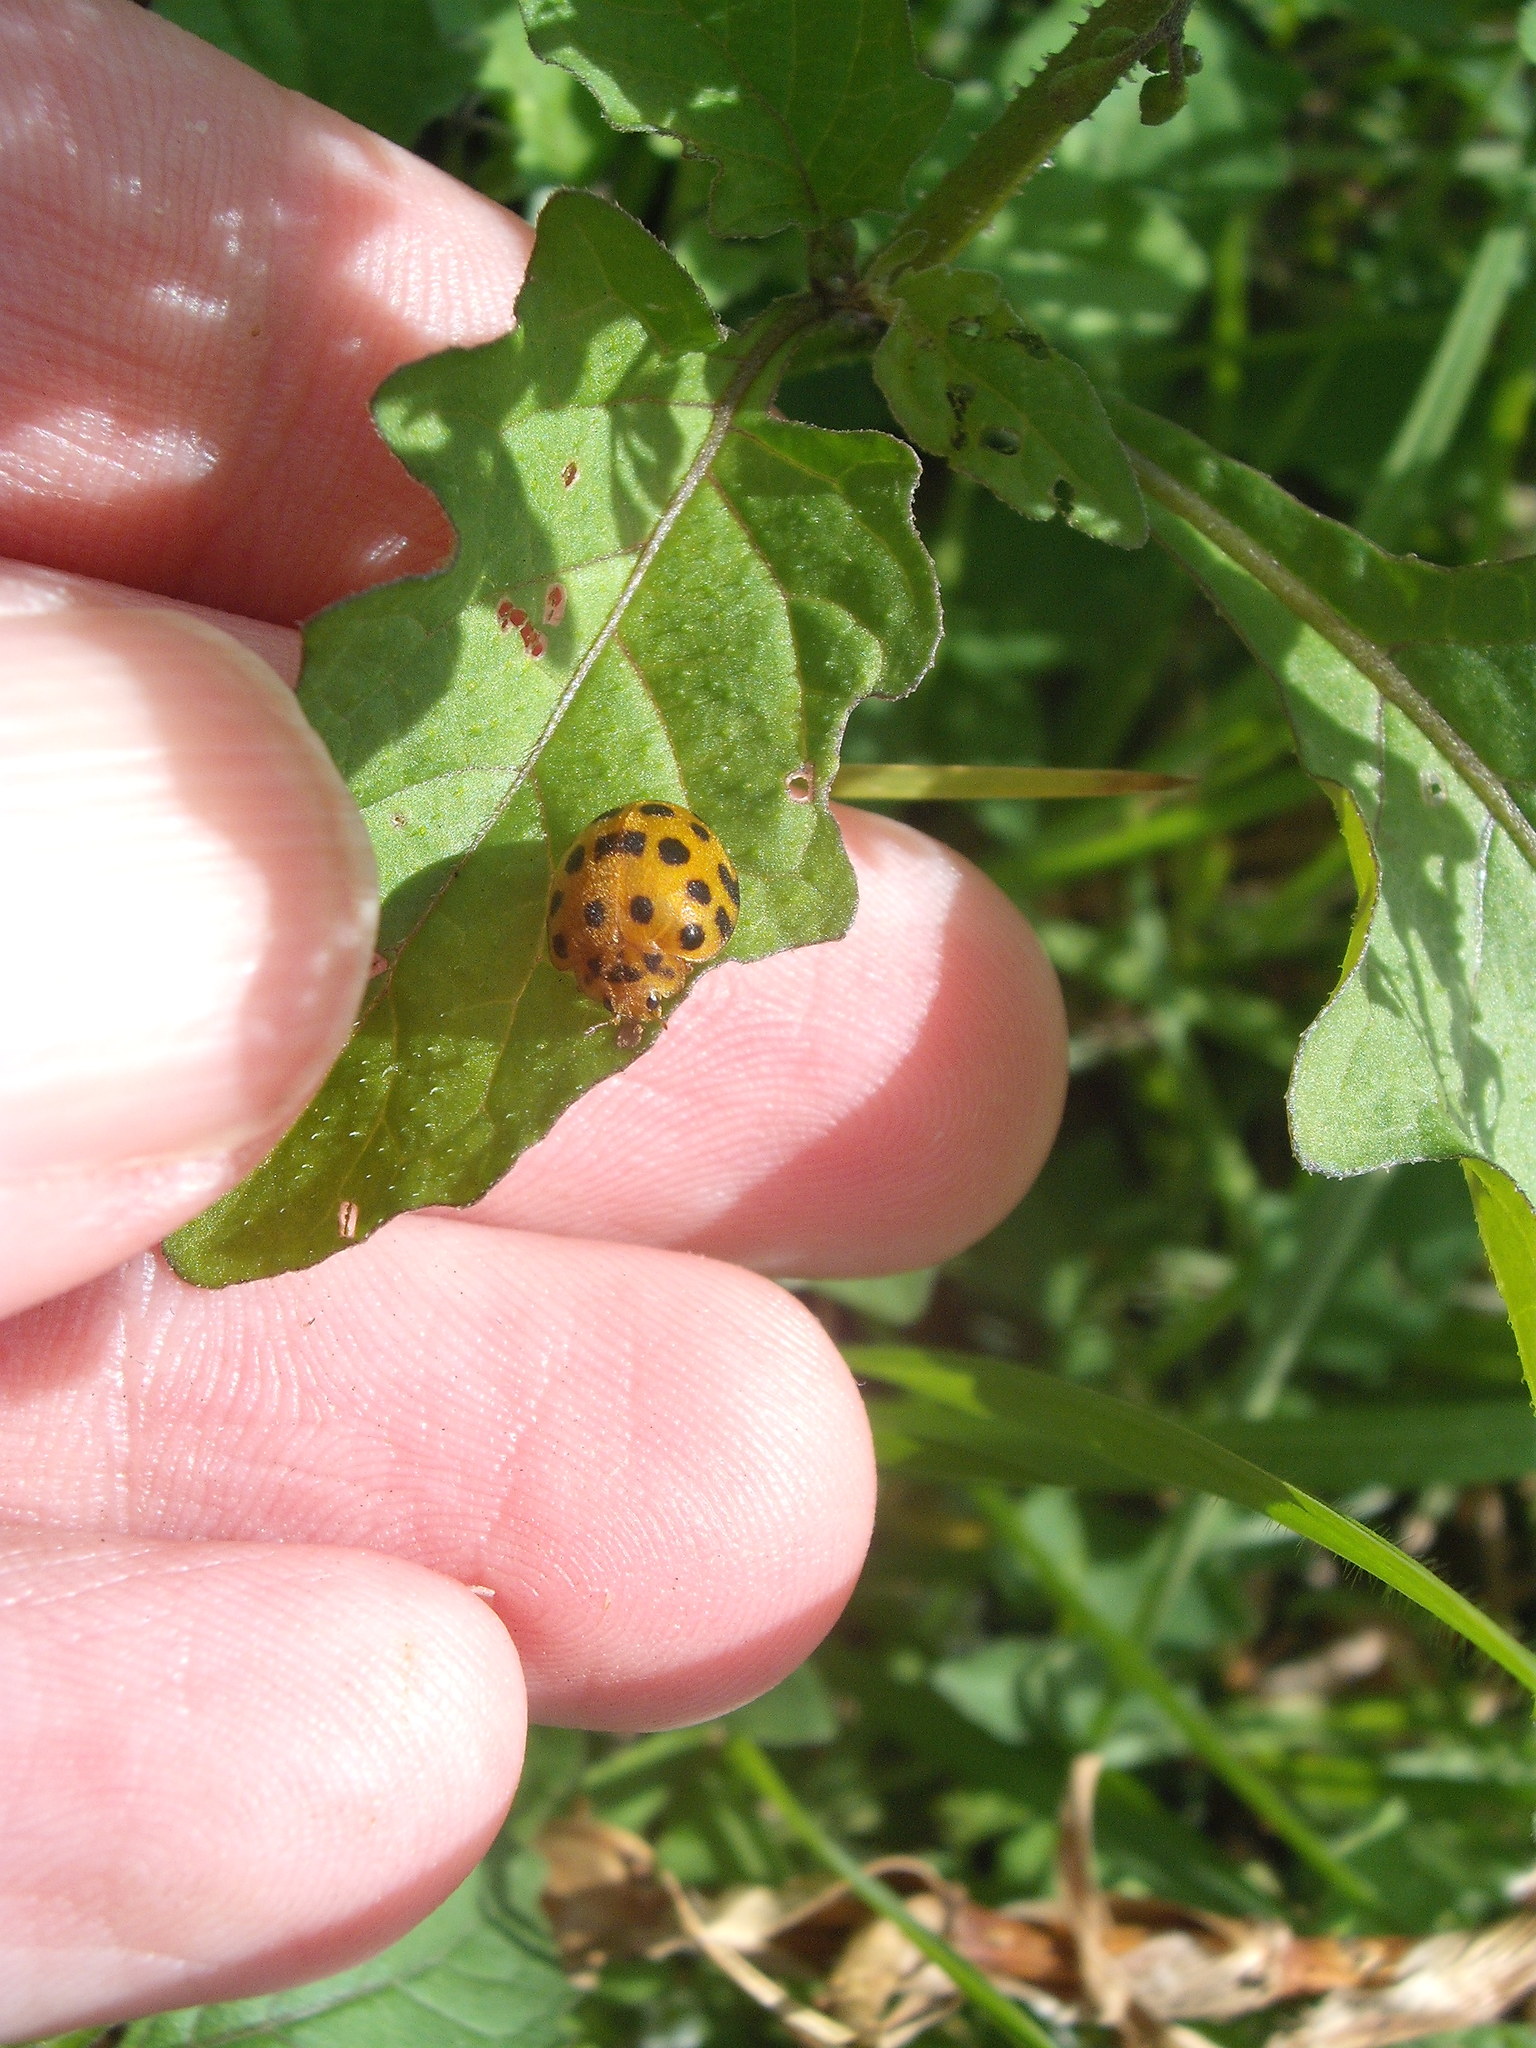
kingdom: Animalia
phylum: Arthropoda
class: Insecta
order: Coleoptera
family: Coccinellidae
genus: Henosepilachna
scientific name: Henosepilachna vigintioctopunctata
